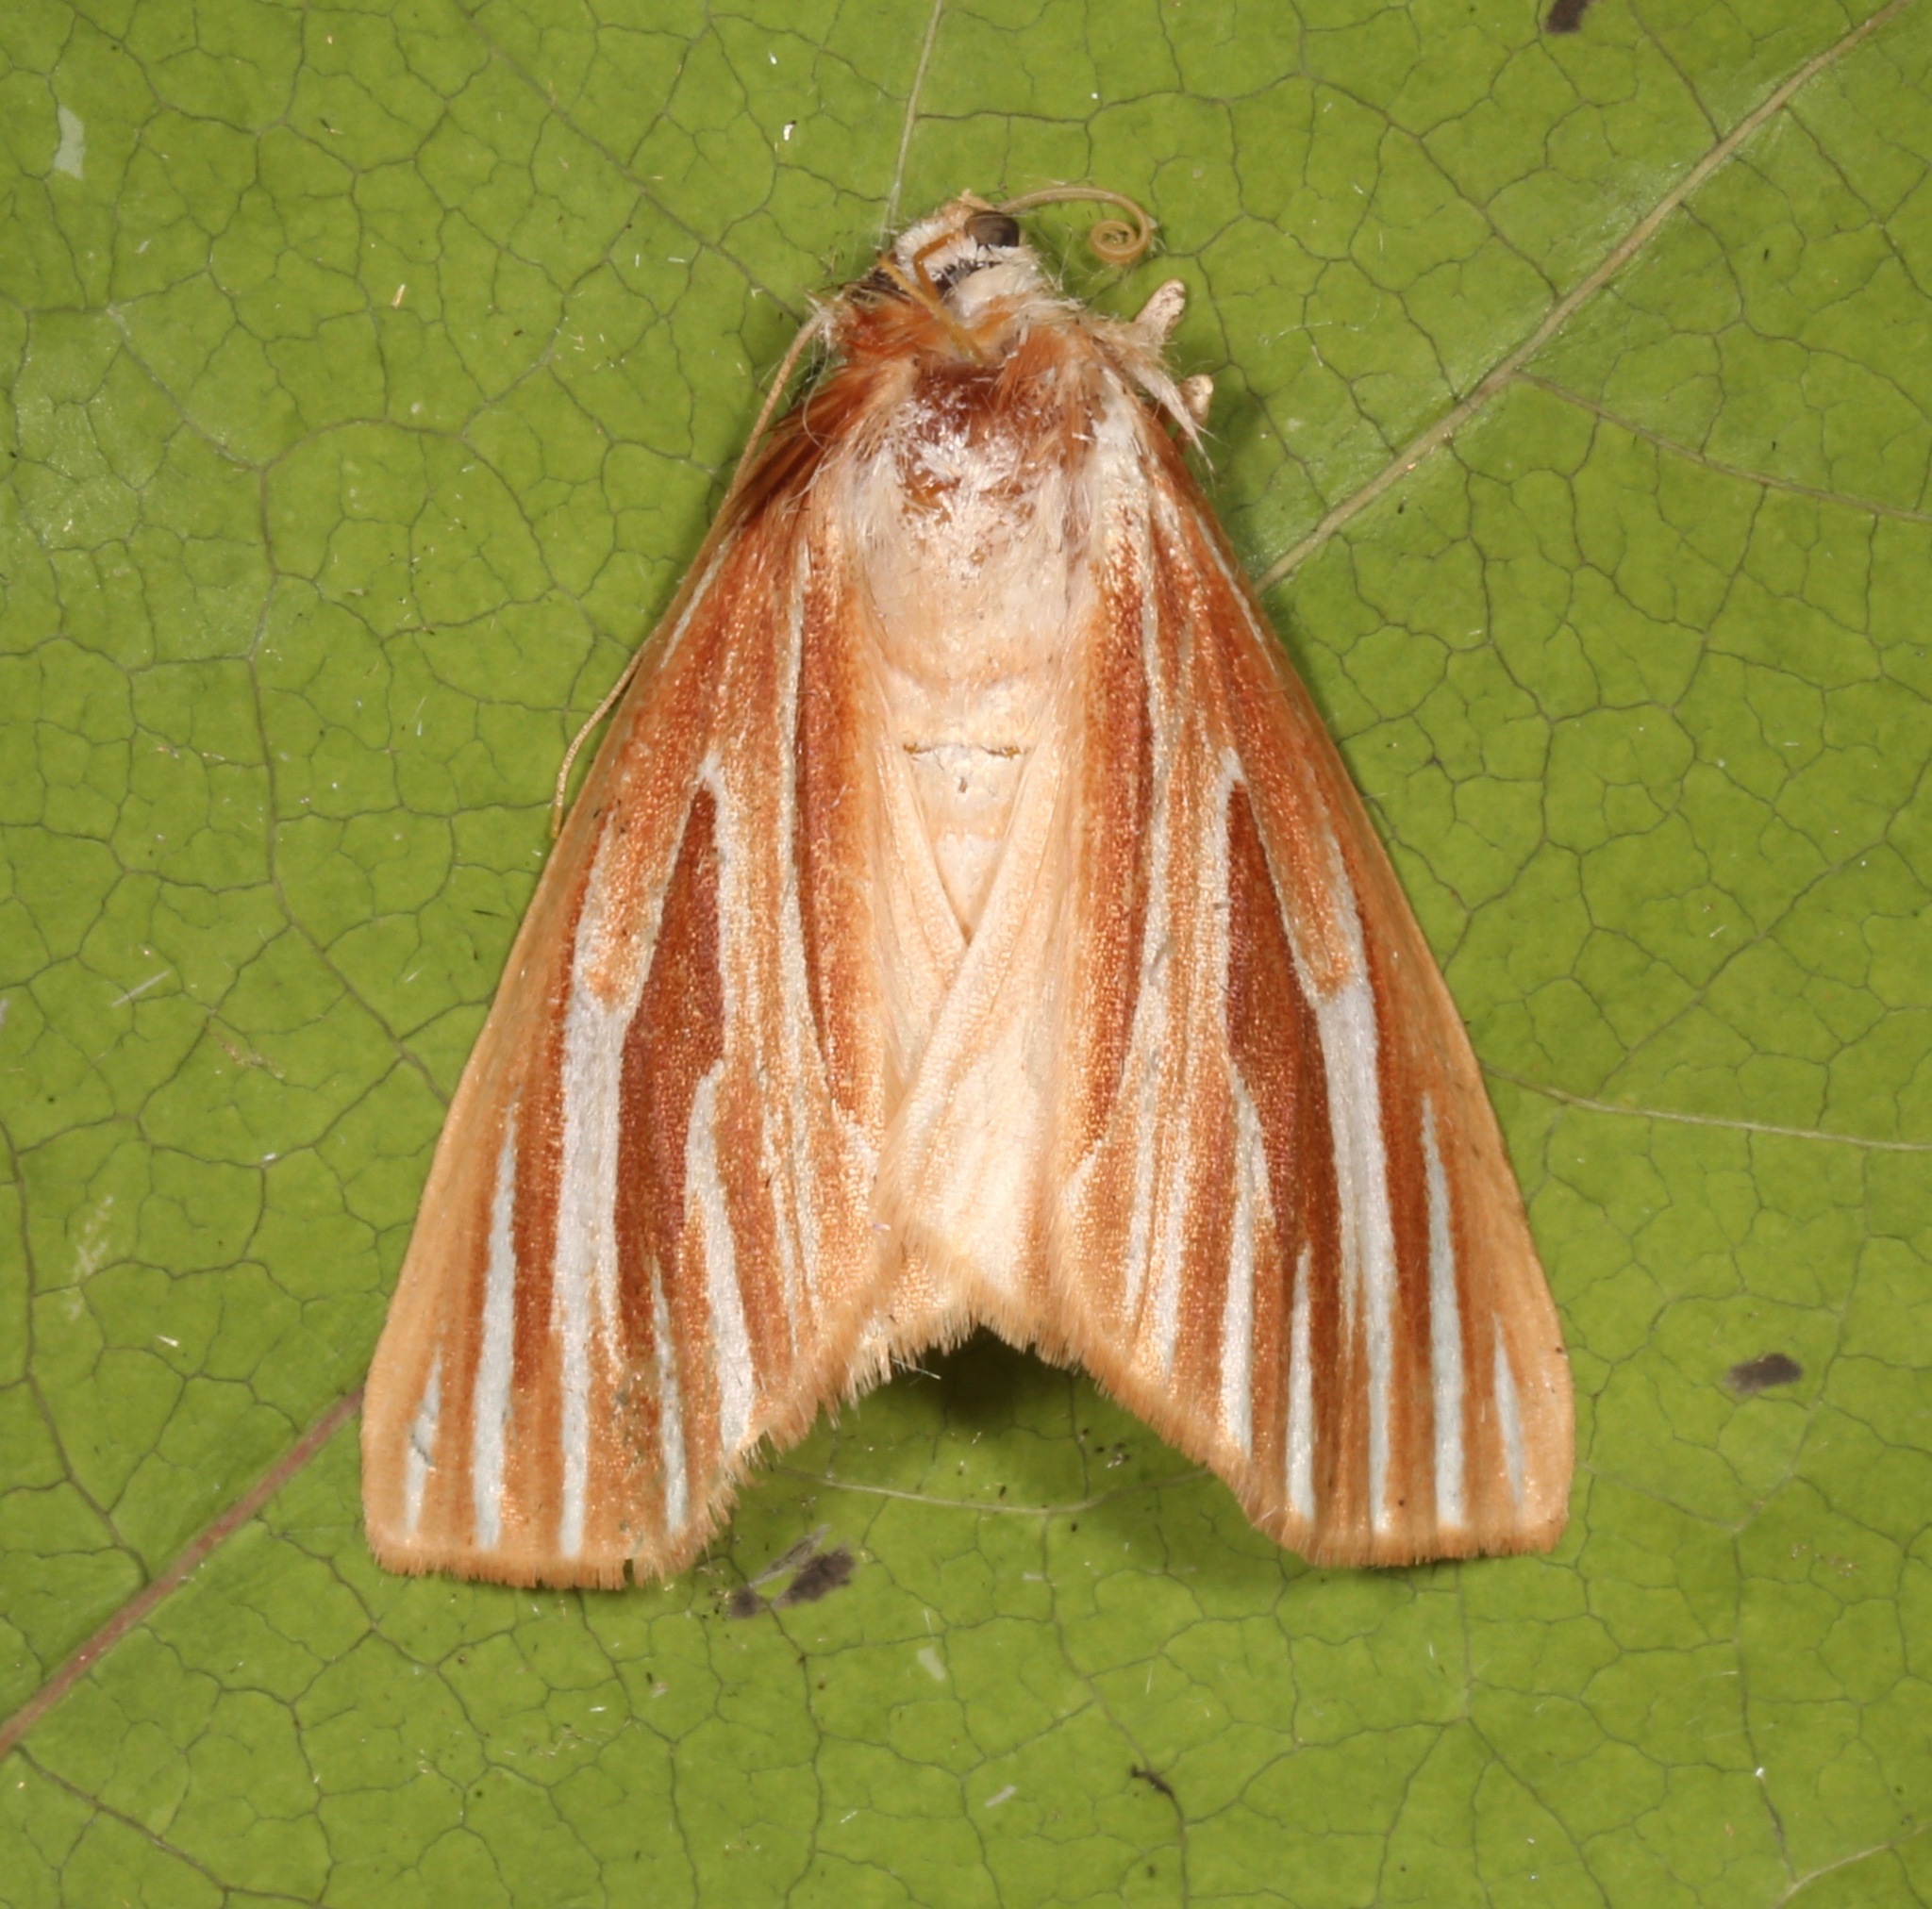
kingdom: Animalia
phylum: Arthropoda
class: Insecta
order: Lepidoptera
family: Geometridae
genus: Sabulodes
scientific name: Sabulodes niveostriata
